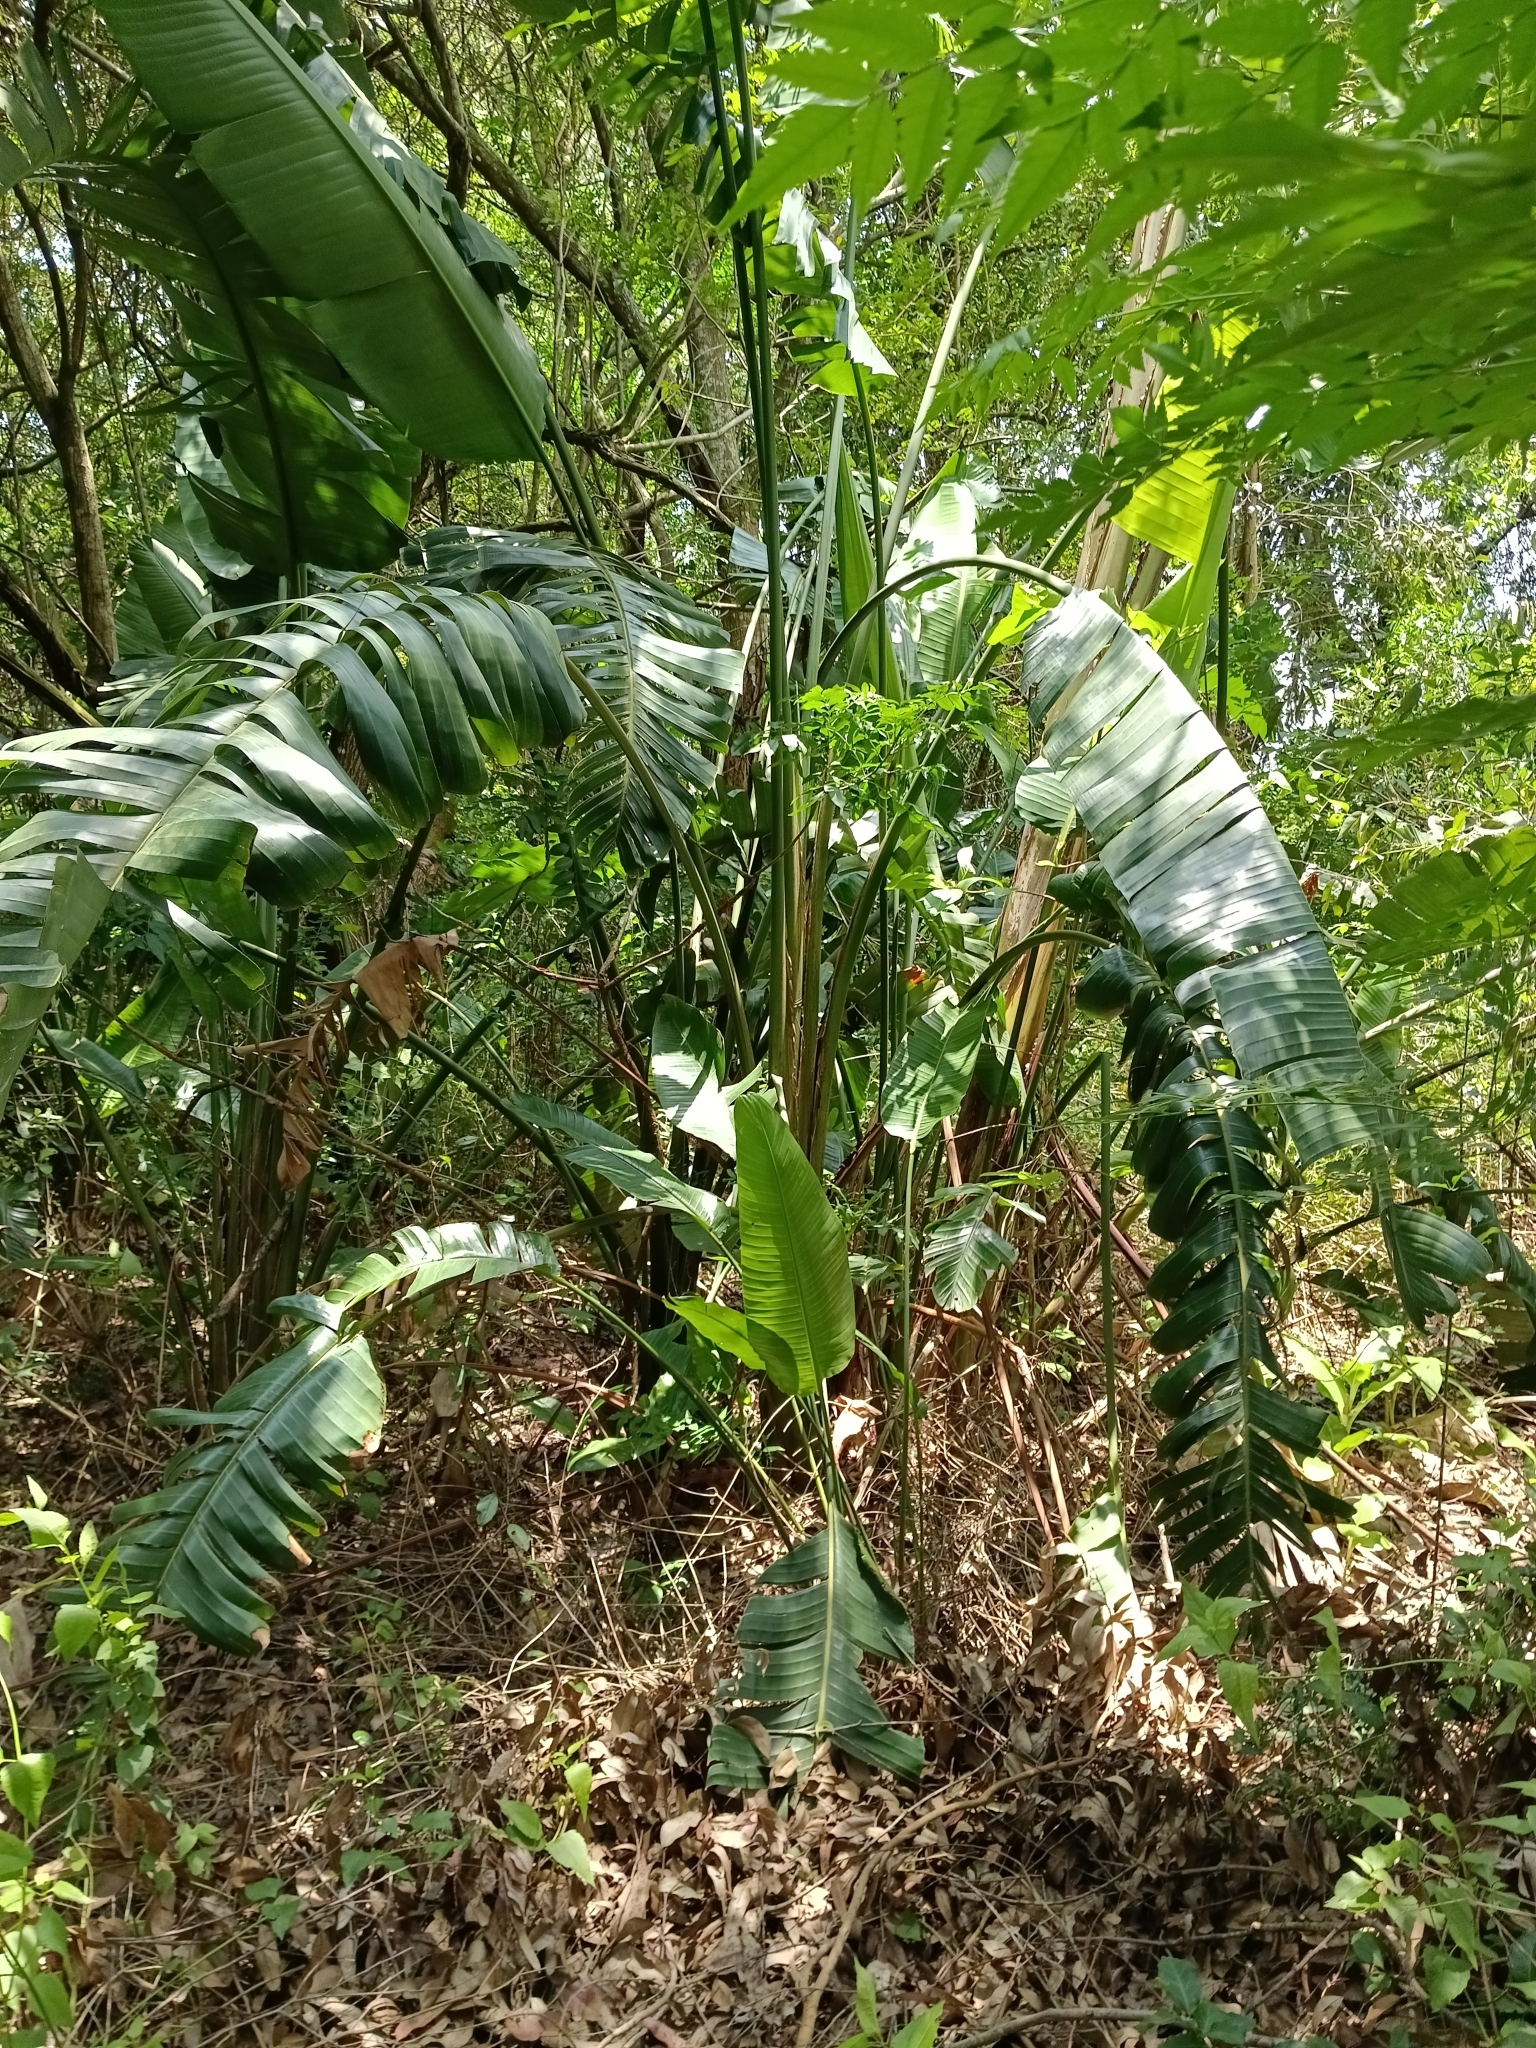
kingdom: Plantae
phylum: Tracheophyta
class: Liliopsida
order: Zingiberales
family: Strelitziaceae
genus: Strelitzia
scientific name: Strelitzia nicolai
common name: Bird-of-paradise tree
